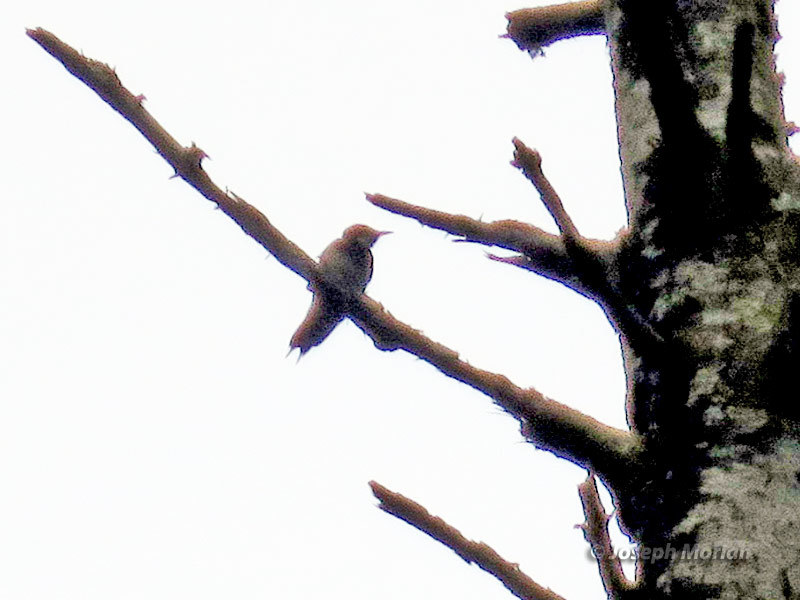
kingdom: Animalia
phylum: Chordata
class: Aves
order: Piciformes
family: Picidae
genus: Melanerpes
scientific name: Melanerpes formicivorus
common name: Acorn woodpecker
